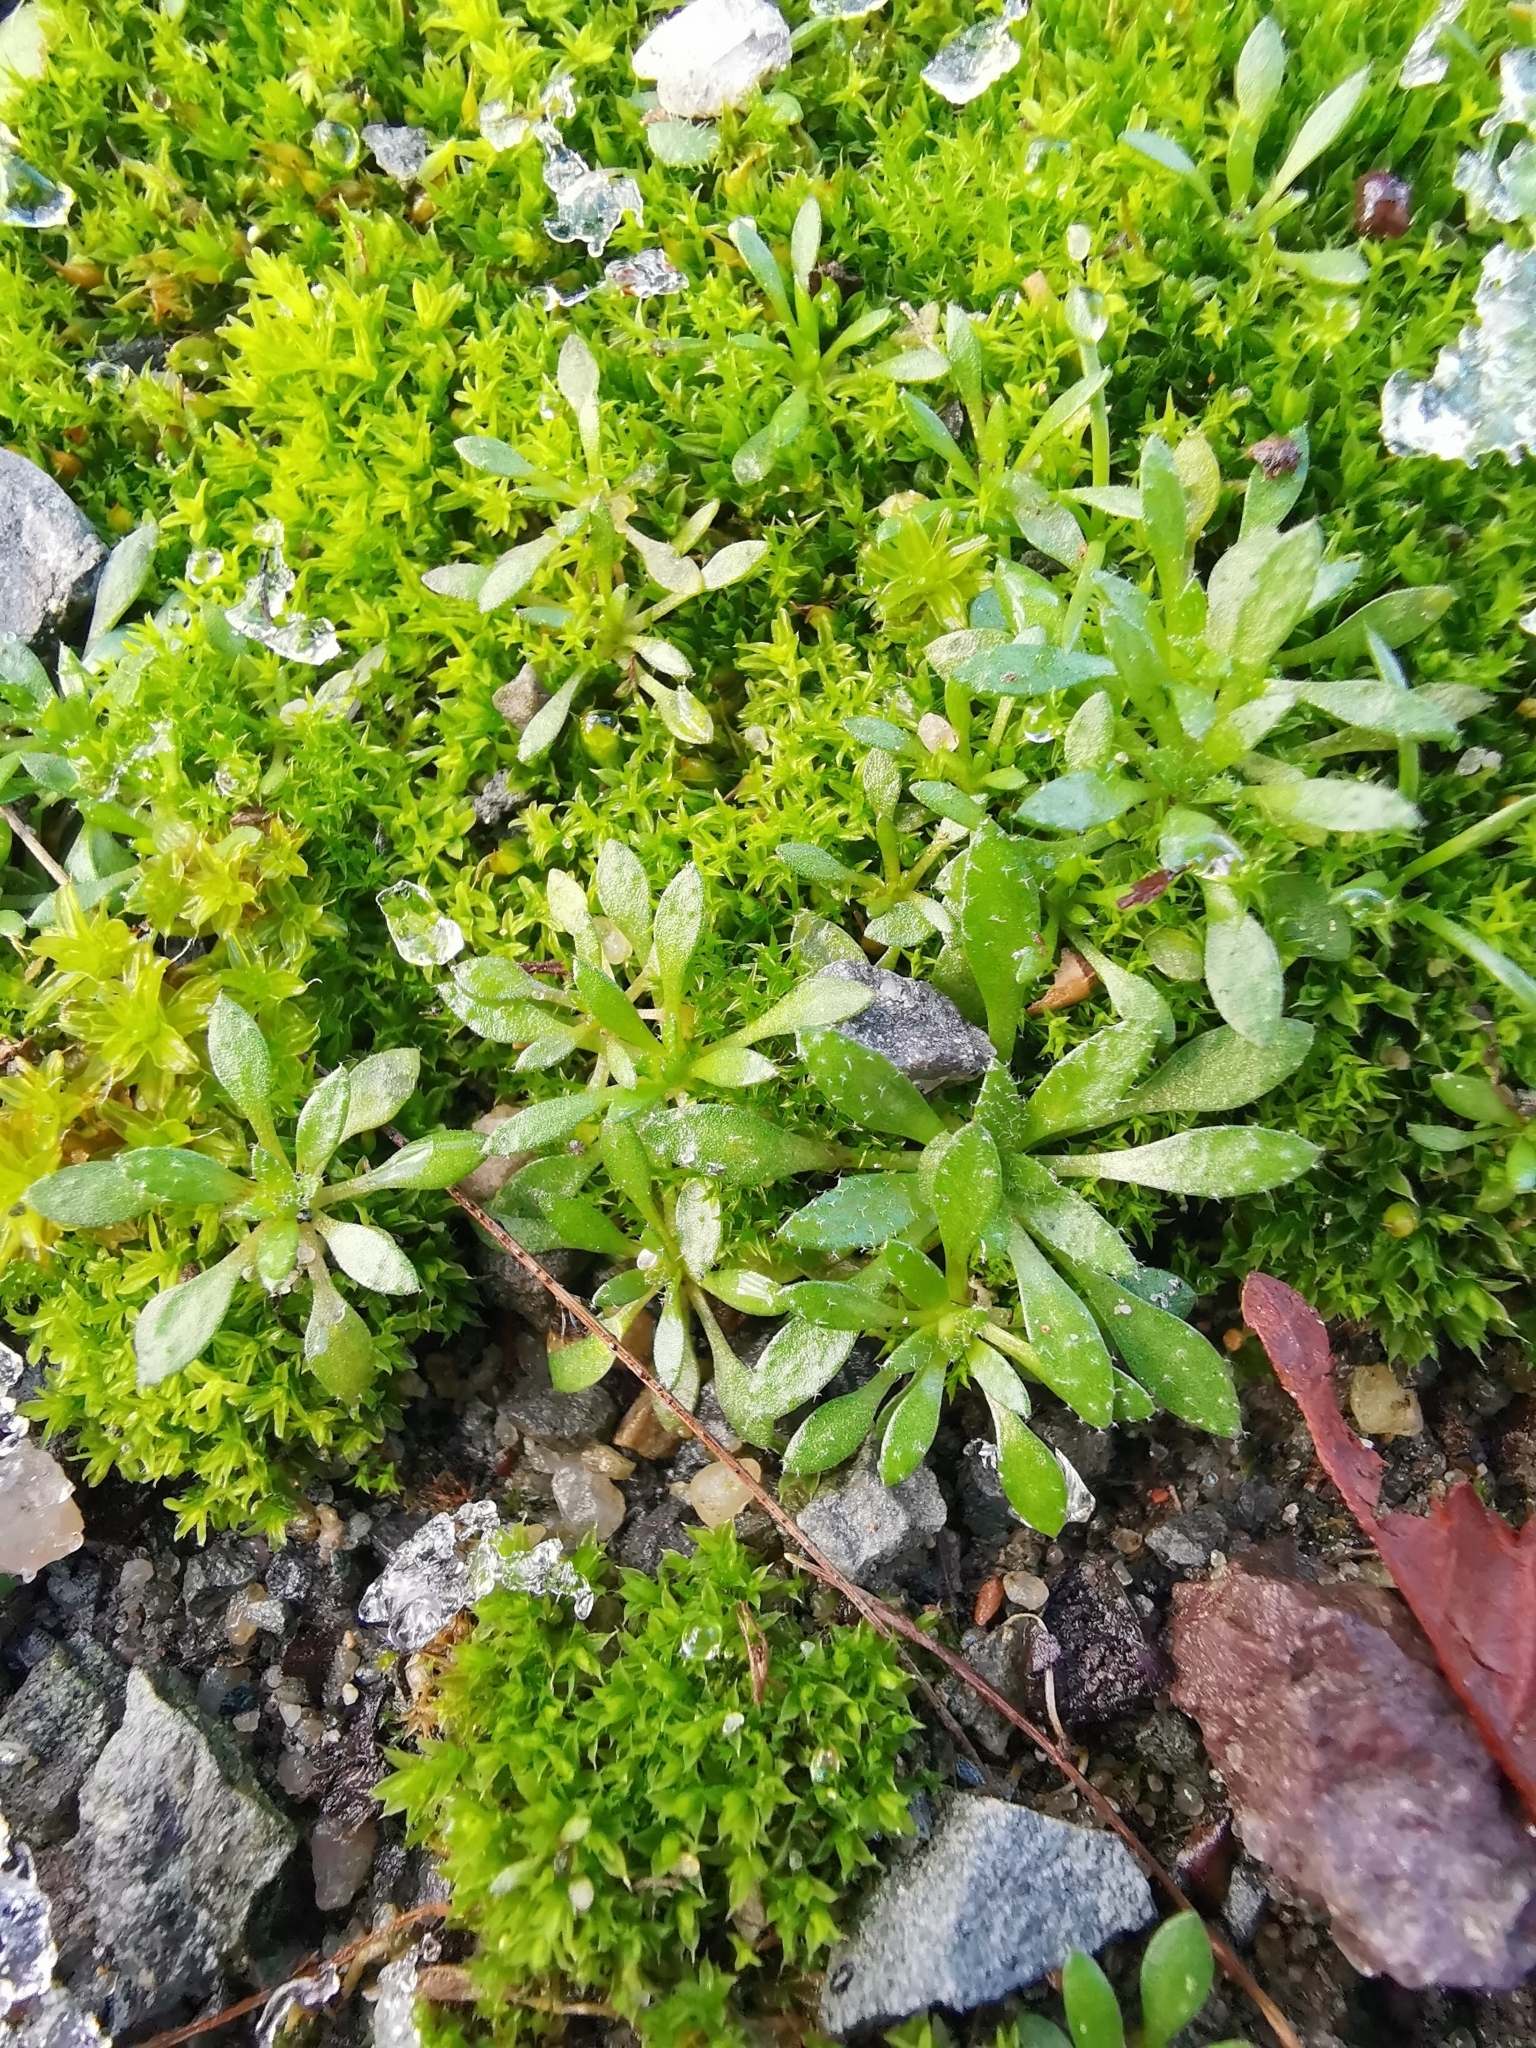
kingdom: Plantae
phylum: Tracheophyta
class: Magnoliopsida
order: Brassicales
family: Brassicaceae
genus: Draba
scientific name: Draba verna
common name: Spring draba
